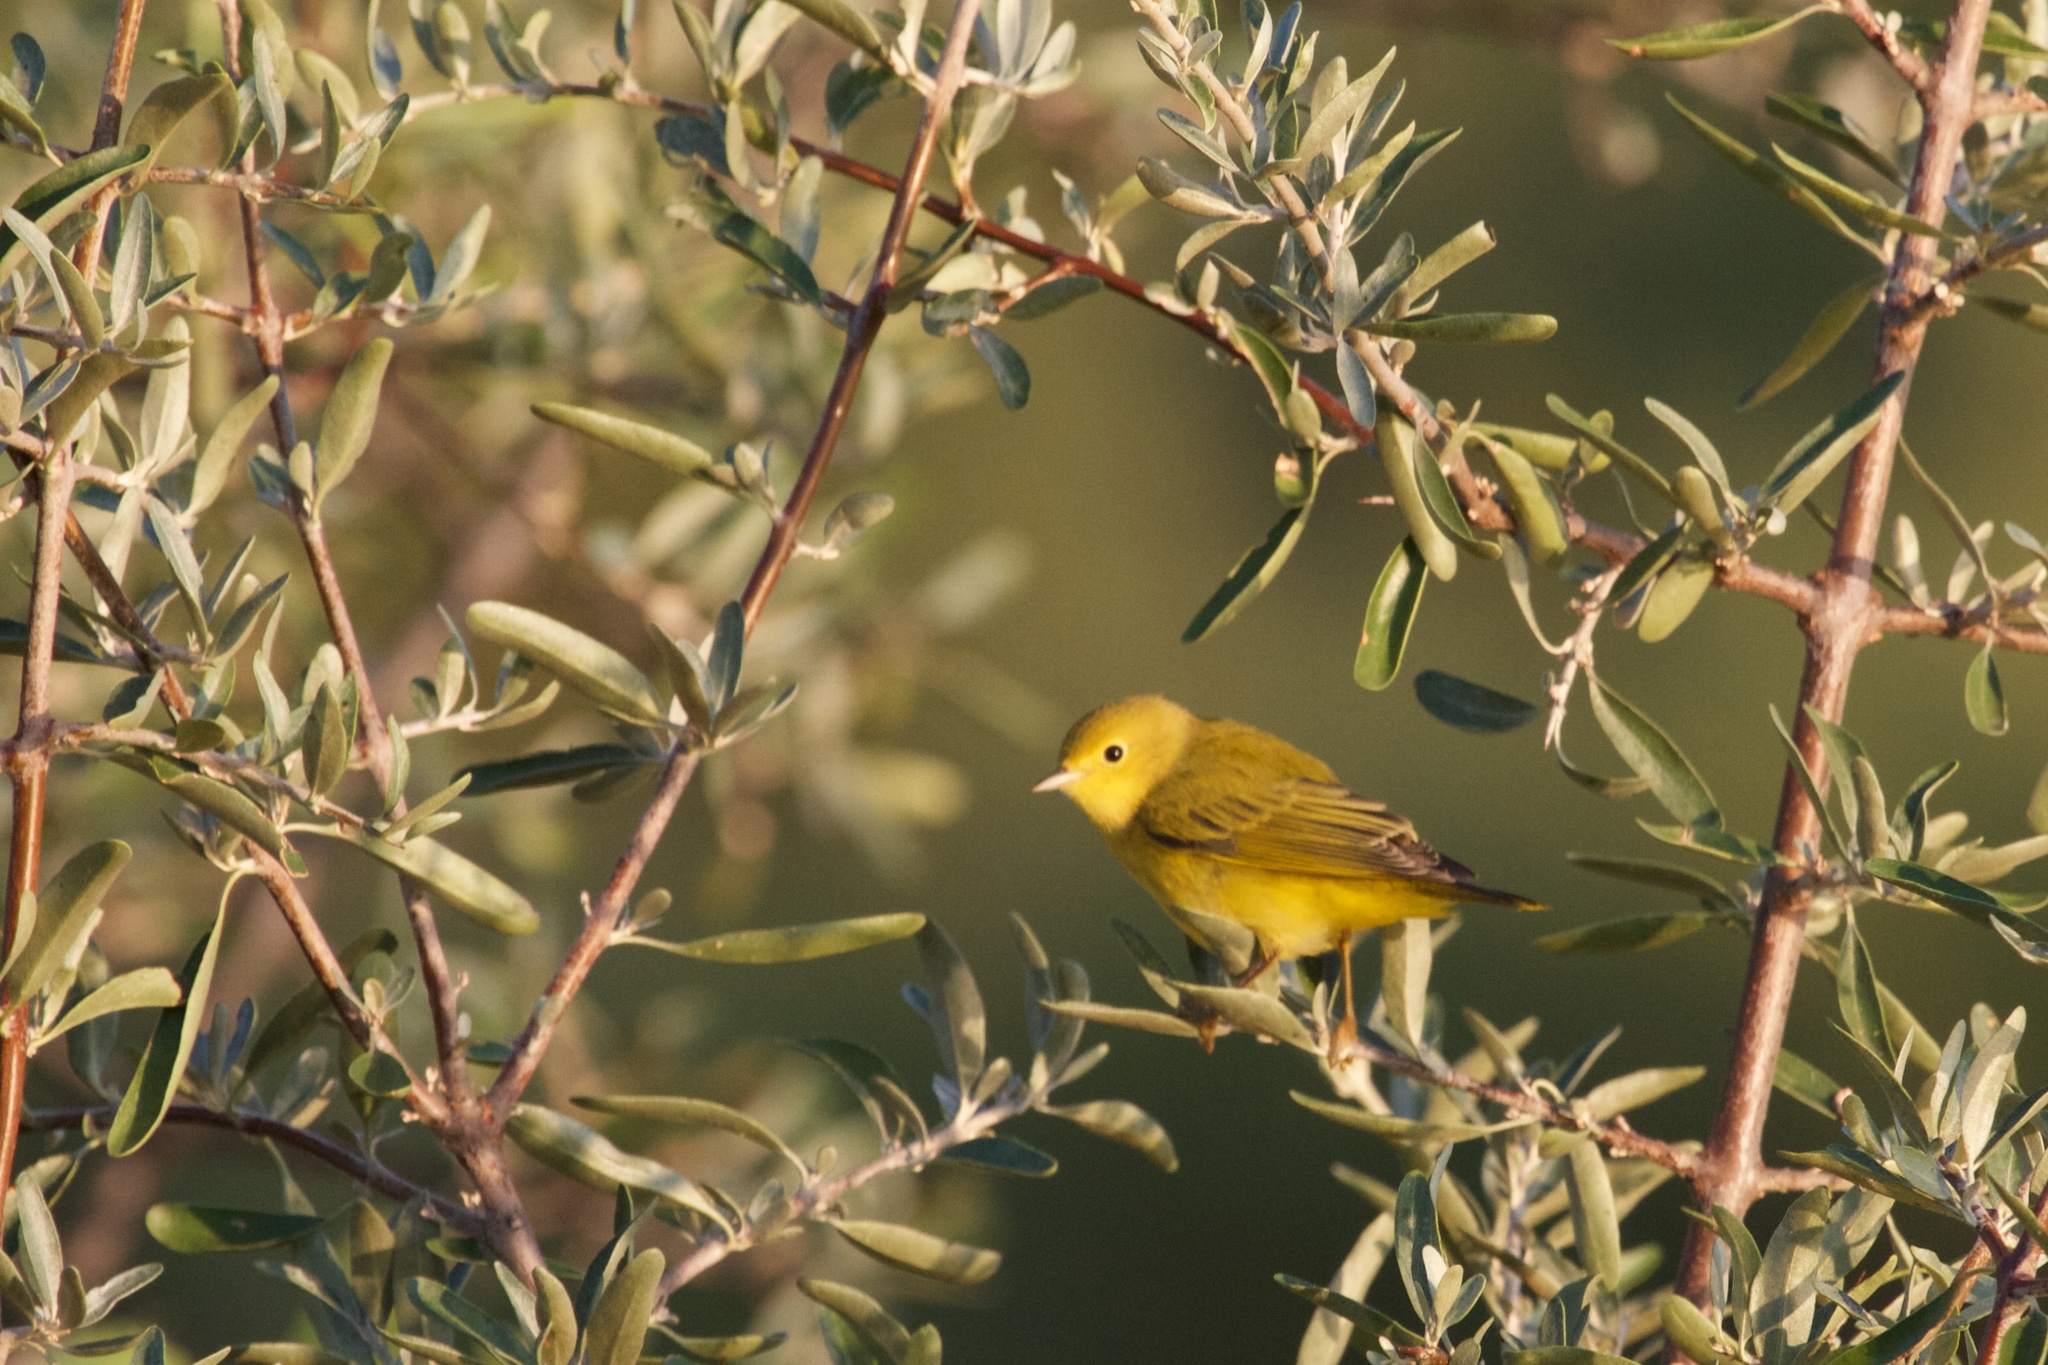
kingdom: Animalia
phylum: Chordata
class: Aves
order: Passeriformes
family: Parulidae
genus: Setophaga
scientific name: Setophaga petechia
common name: Yellow warbler
